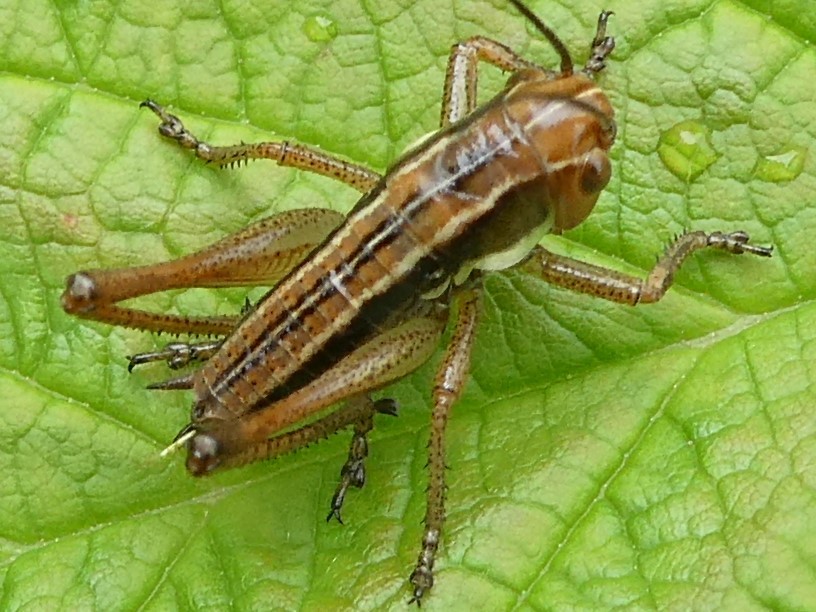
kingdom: Animalia
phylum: Arthropoda
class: Insecta
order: Orthoptera
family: Tettigoniidae
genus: Roeseliana
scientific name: Roeseliana roeselii
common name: Roesel's bush cricket
